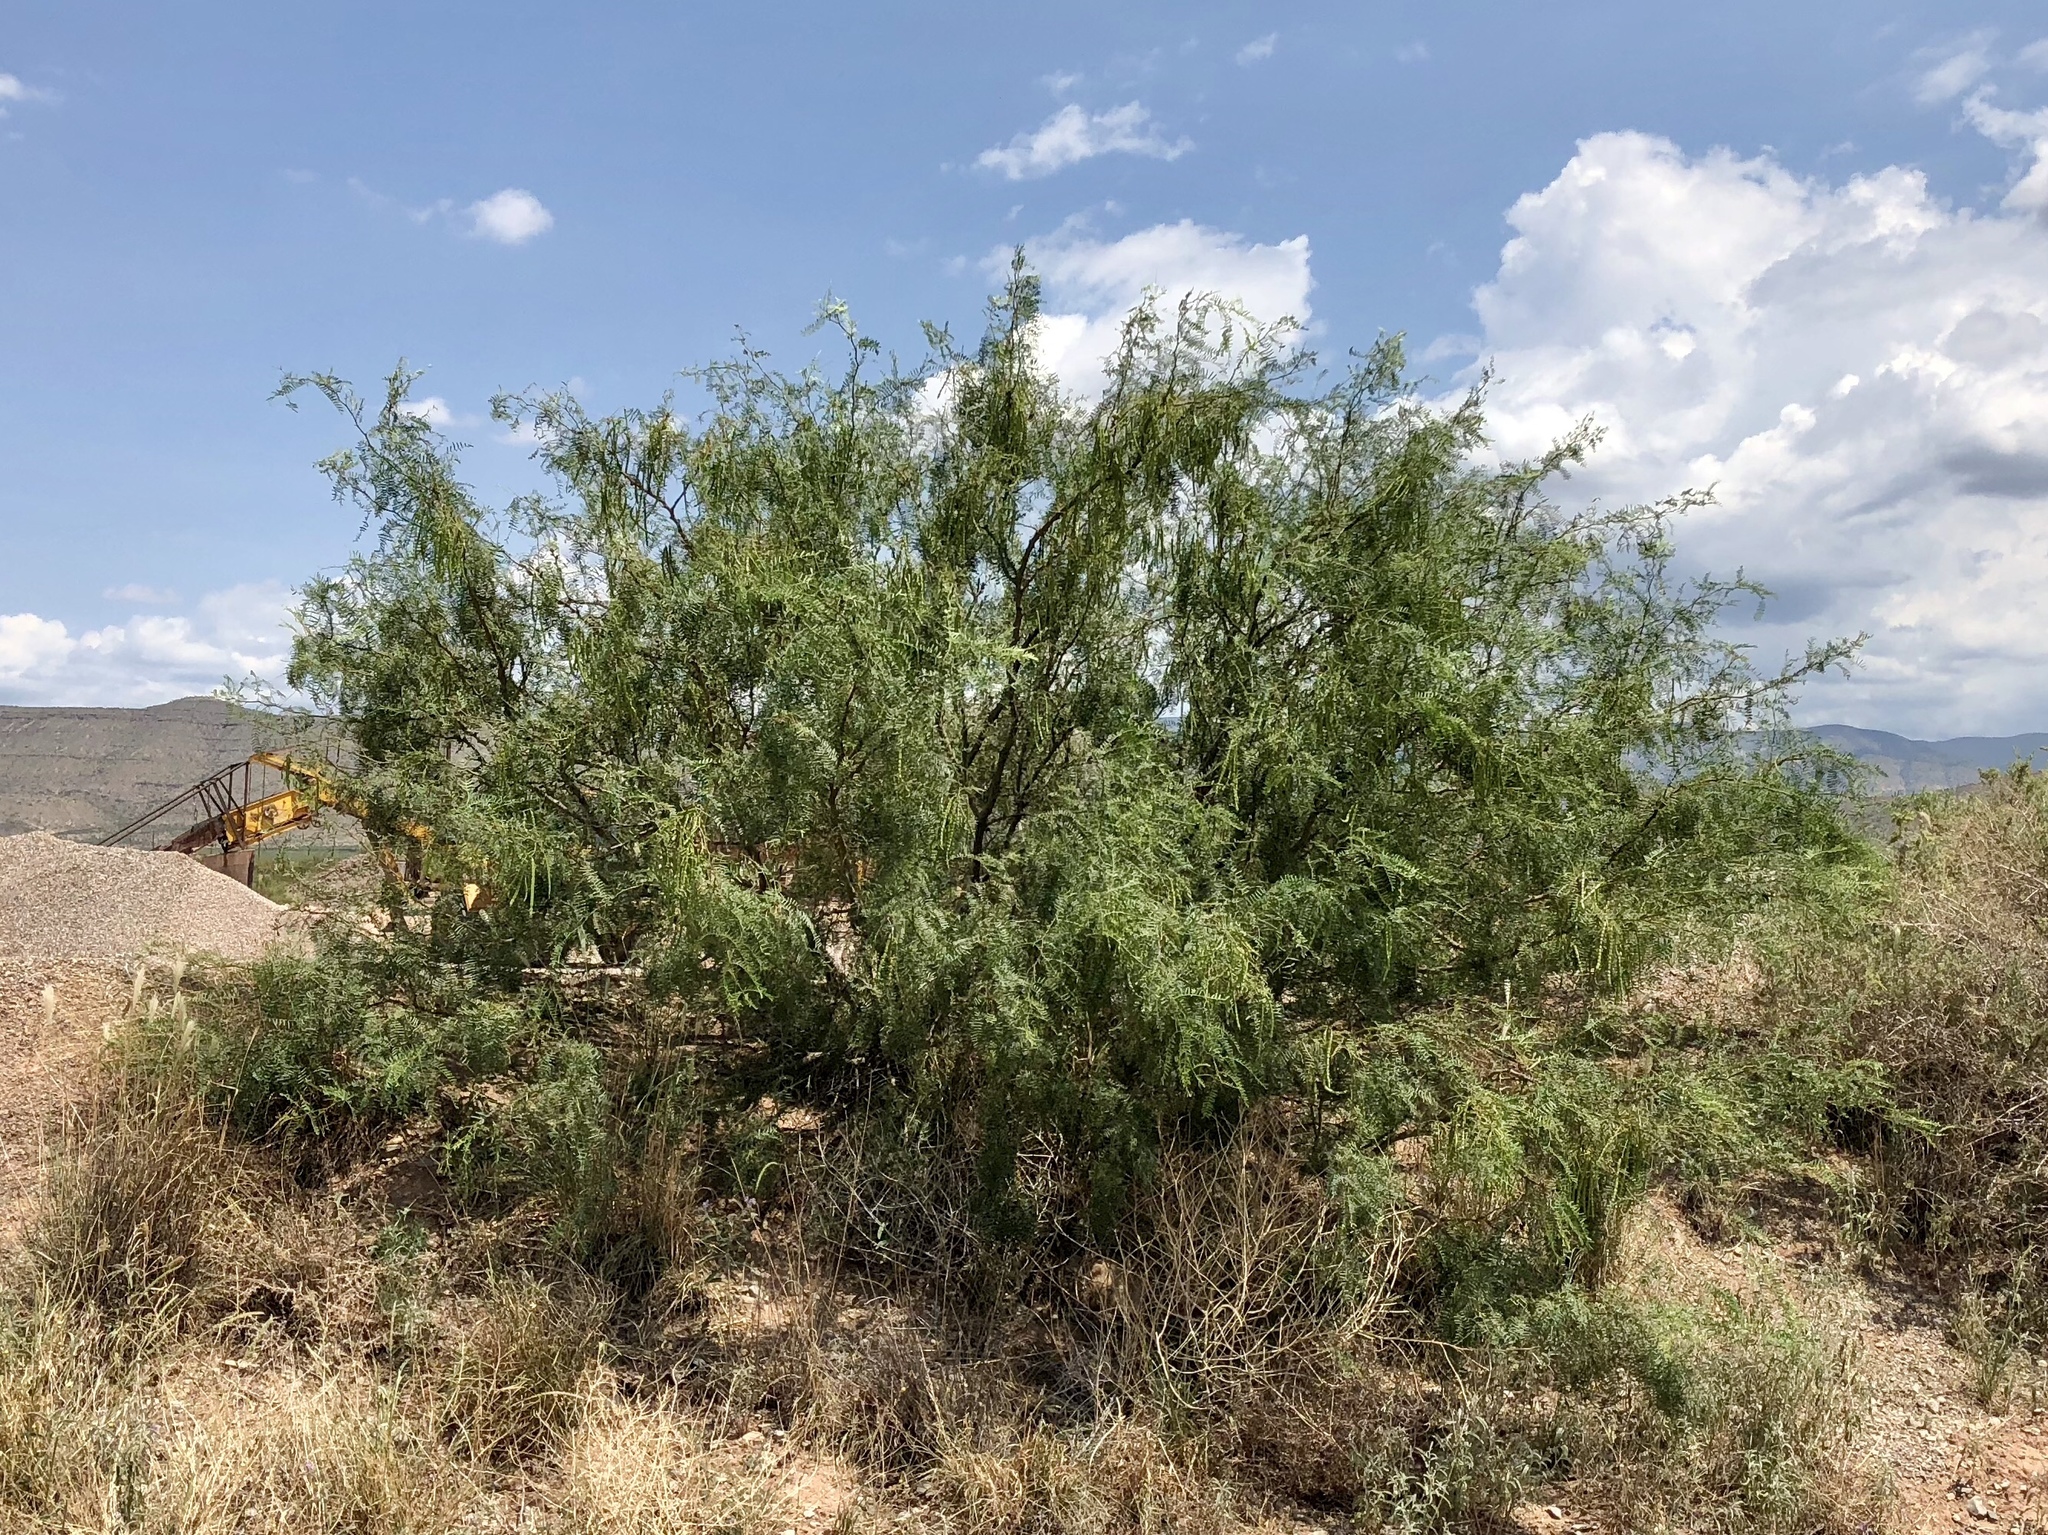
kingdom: Plantae
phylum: Tracheophyta
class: Magnoliopsida
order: Fabales
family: Fabaceae
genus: Prosopis
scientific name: Prosopis glandulosa
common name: Honey mesquite
